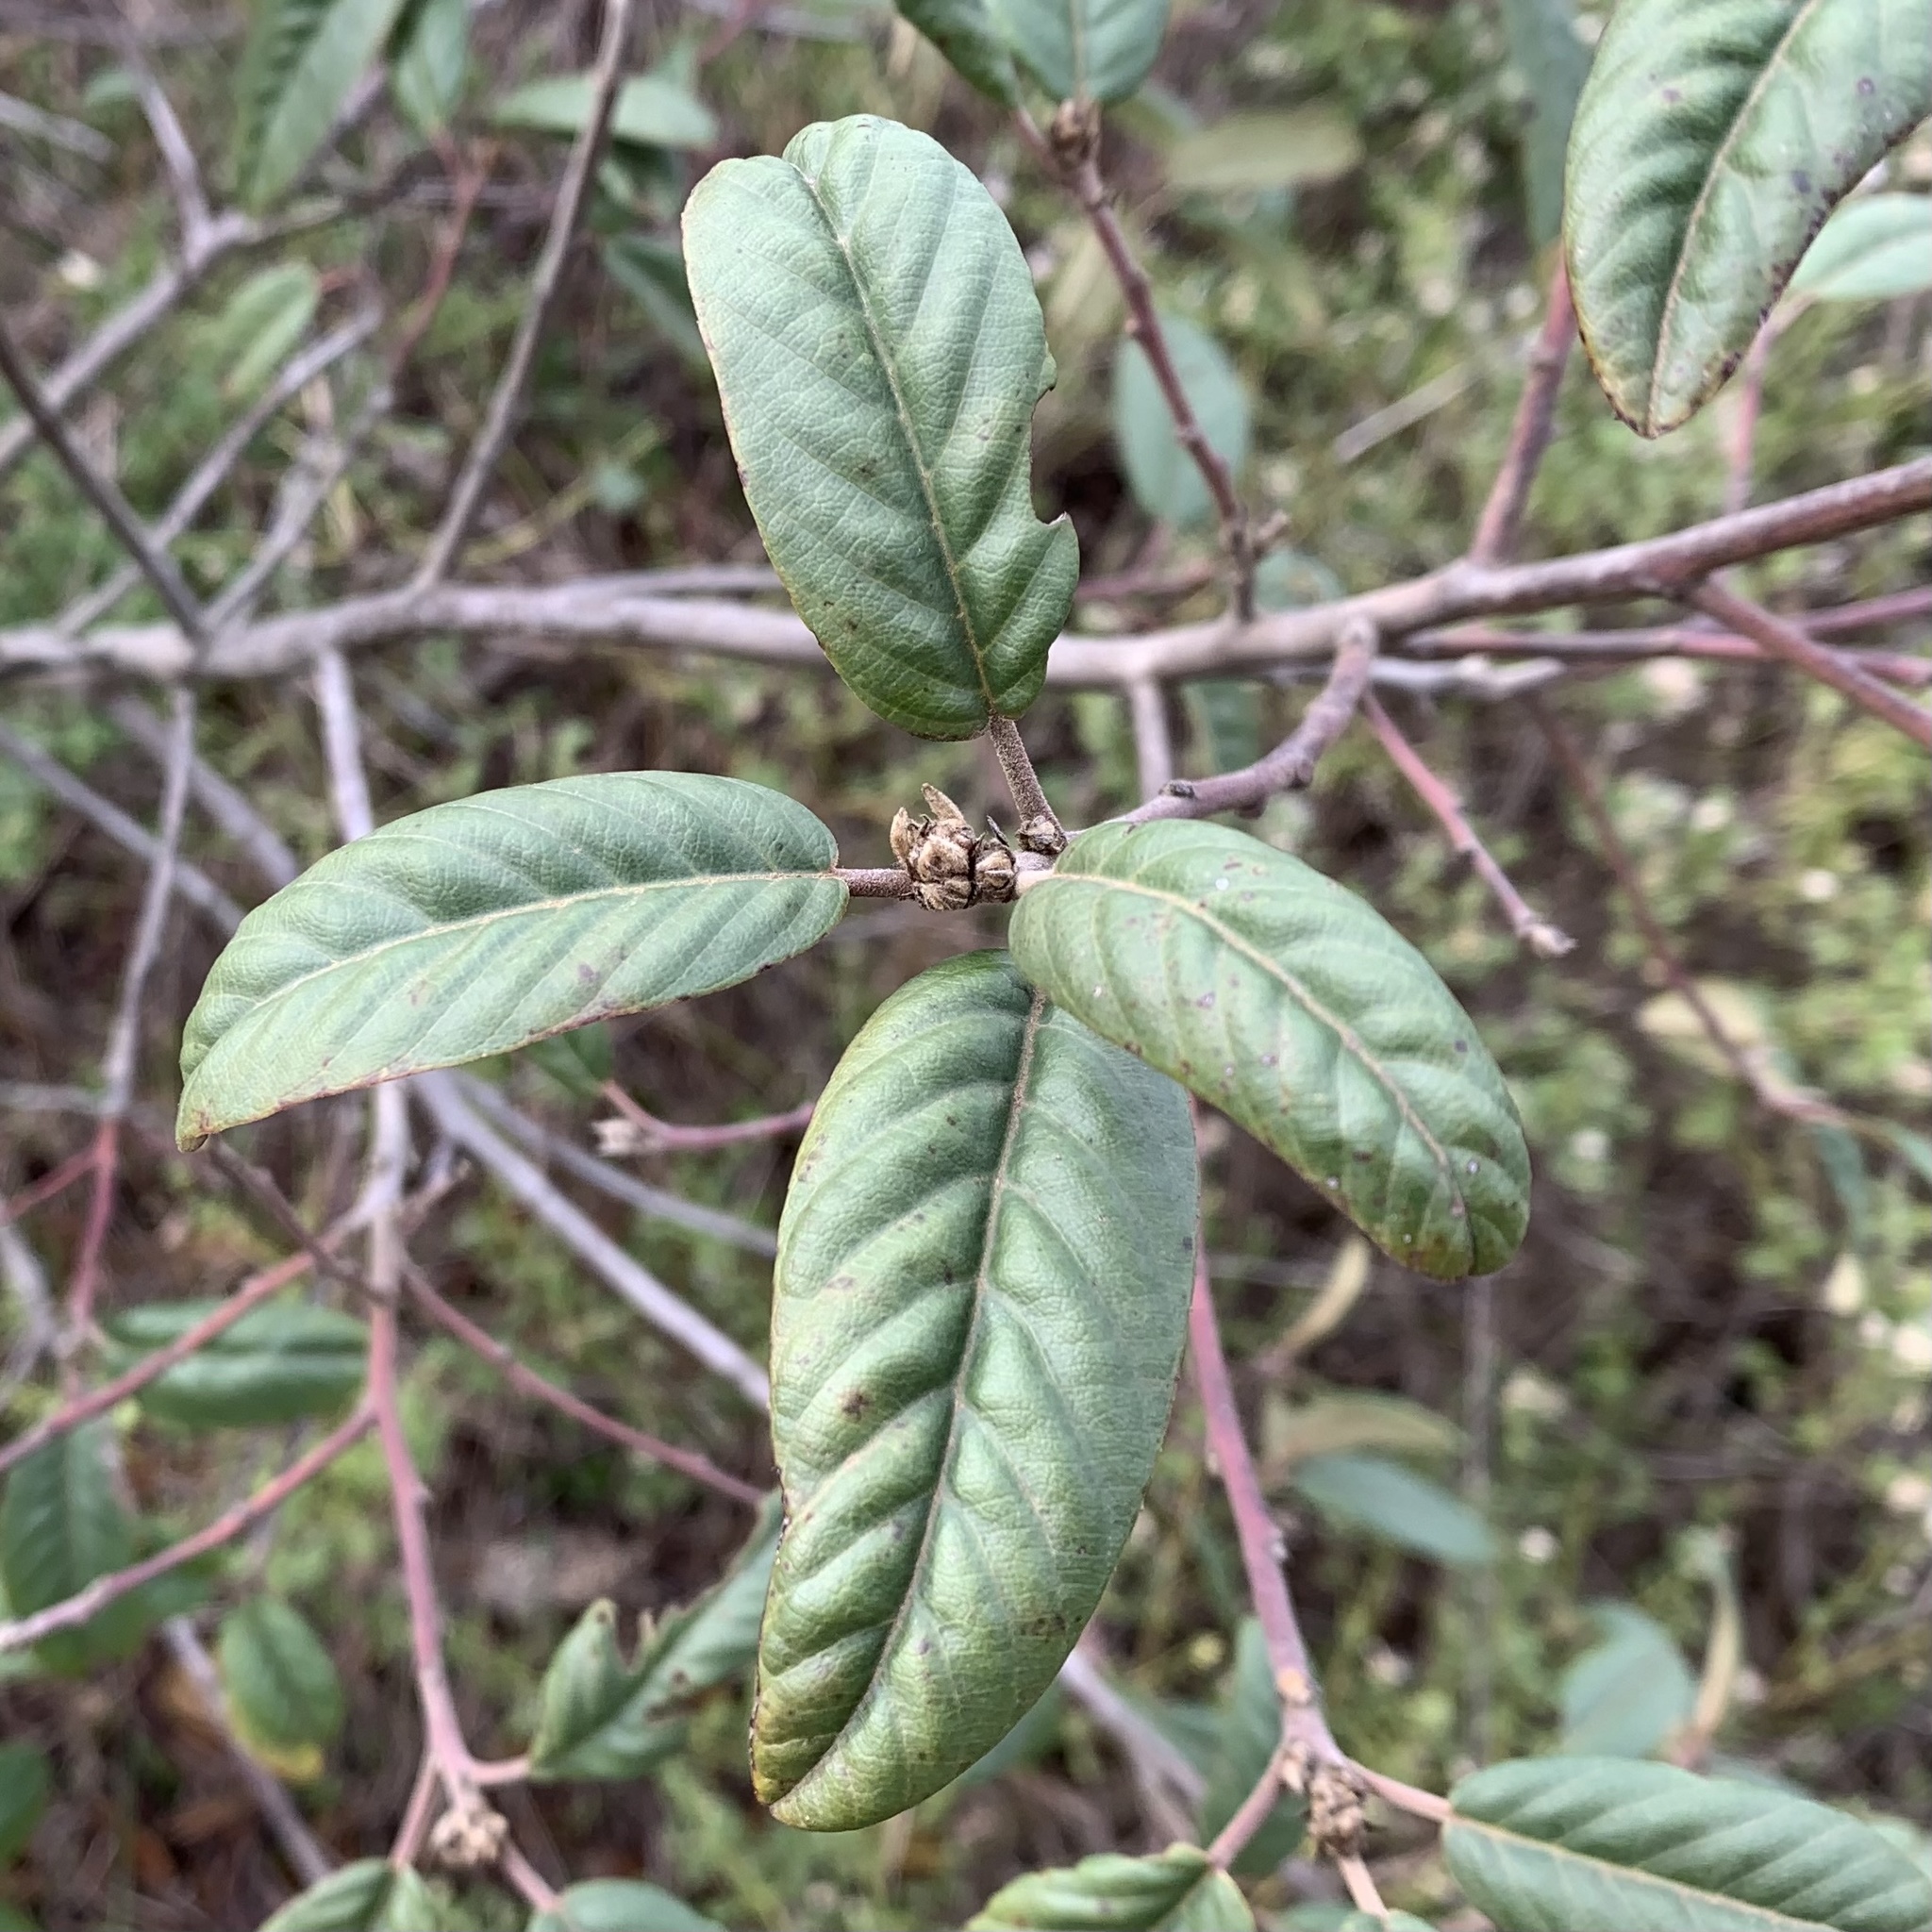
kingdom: Plantae
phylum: Tracheophyta
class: Magnoliopsida
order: Rosales
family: Rhamnaceae
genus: Frangula
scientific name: Frangula californica
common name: California buckthorn
